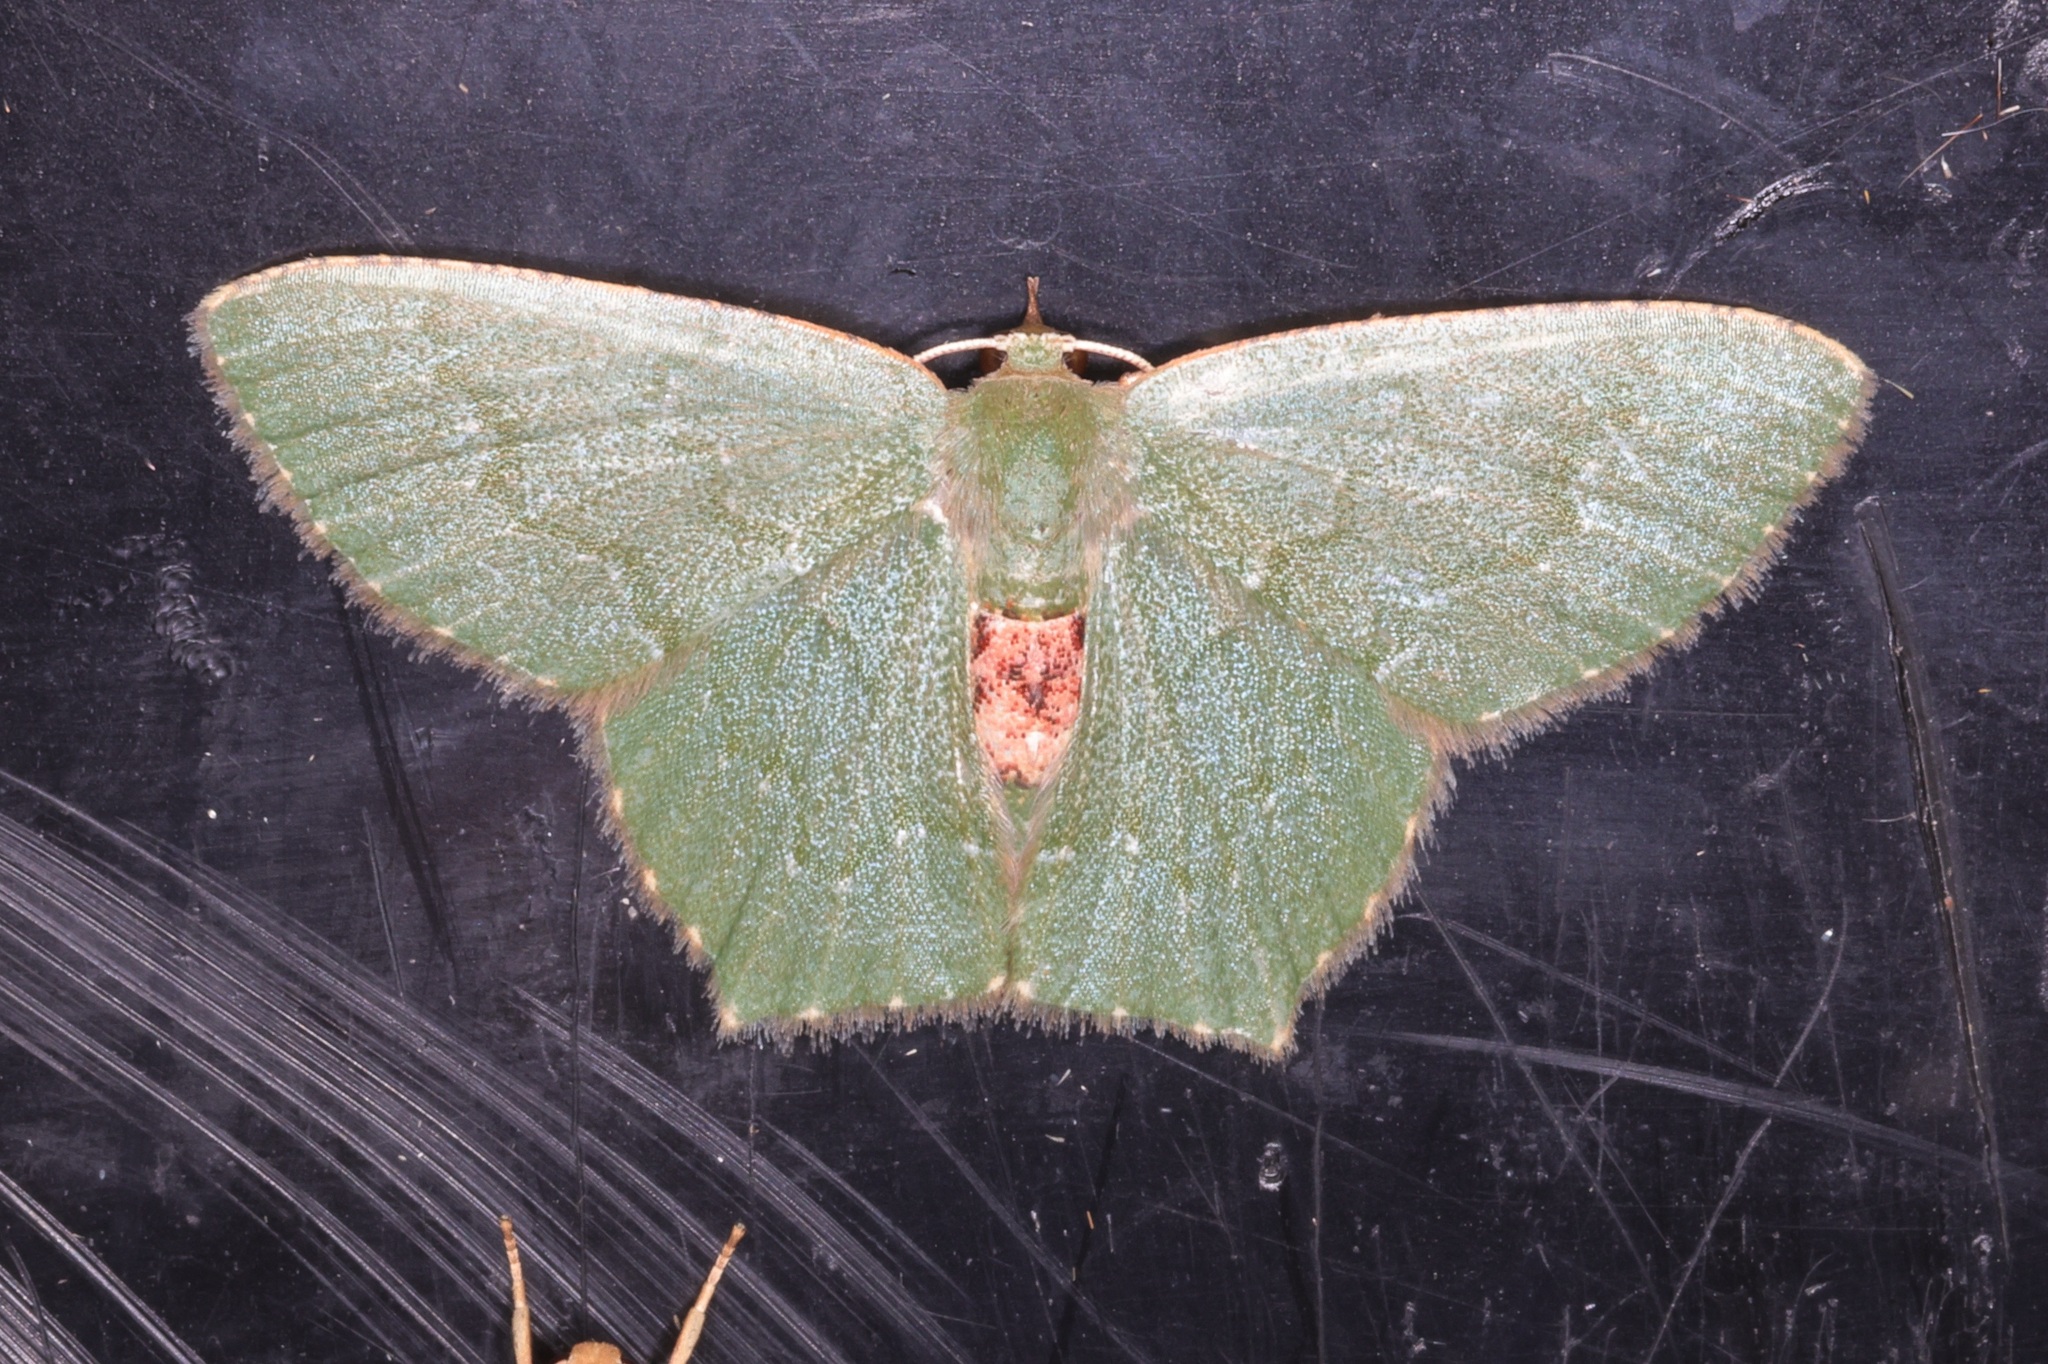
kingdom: Animalia
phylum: Arthropoda
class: Insecta
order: Lepidoptera
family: Geometridae
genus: Hemithea
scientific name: Hemithea marina
